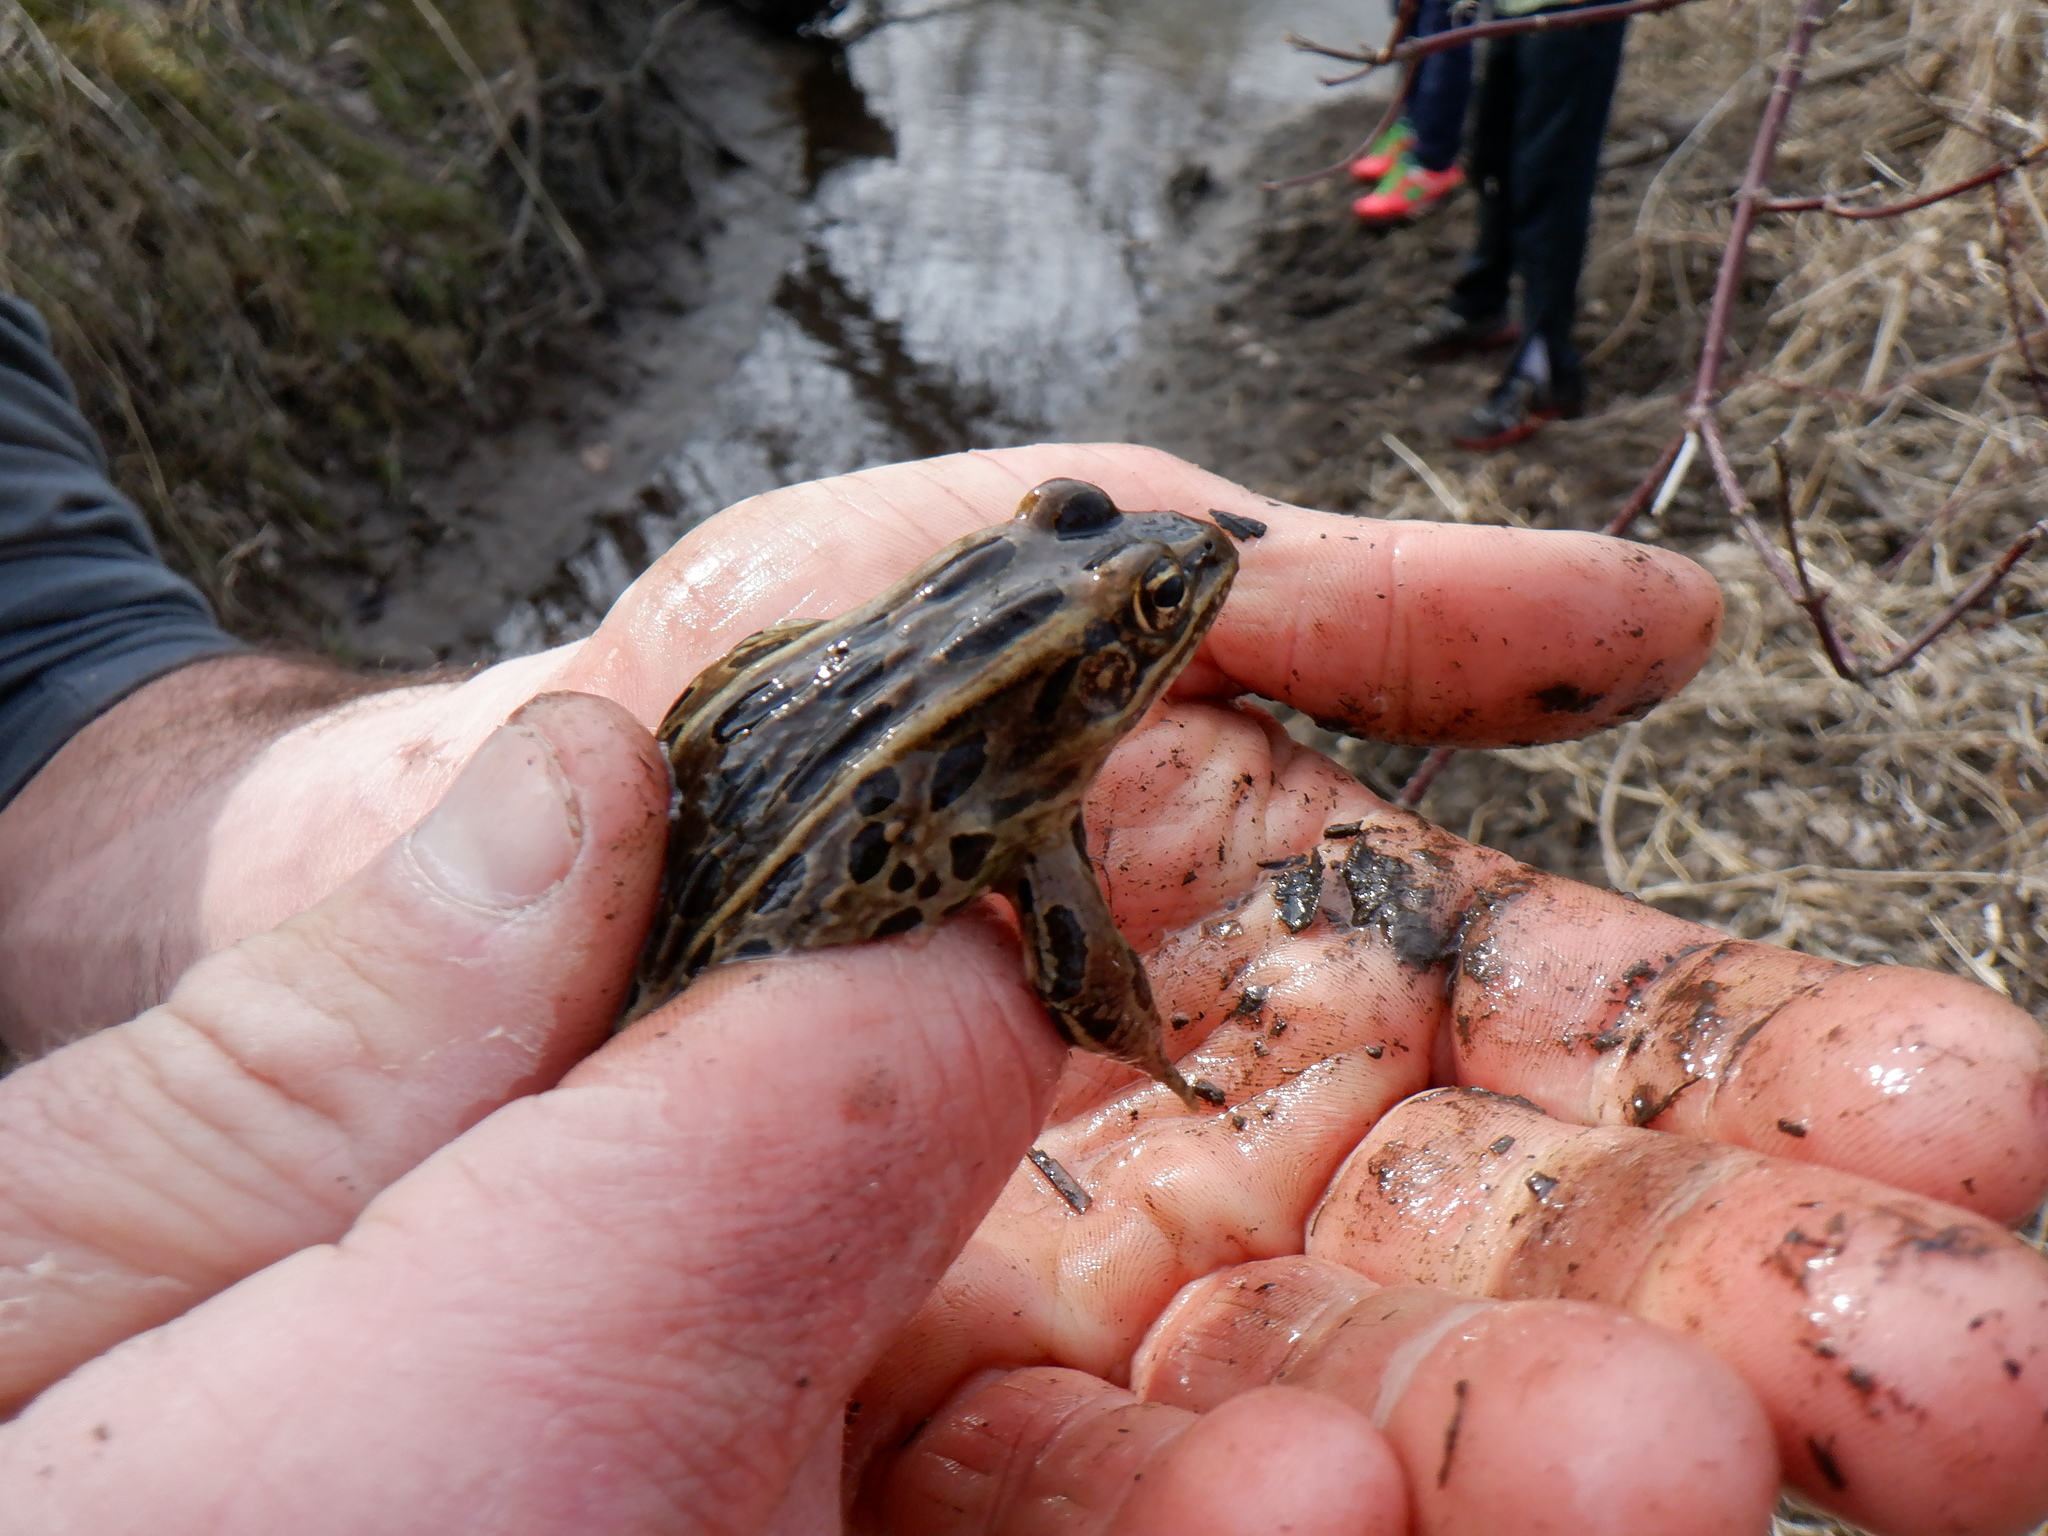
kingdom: Animalia
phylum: Chordata
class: Amphibia
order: Anura
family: Ranidae
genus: Lithobates
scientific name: Lithobates pipiens
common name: Northern leopard frog
